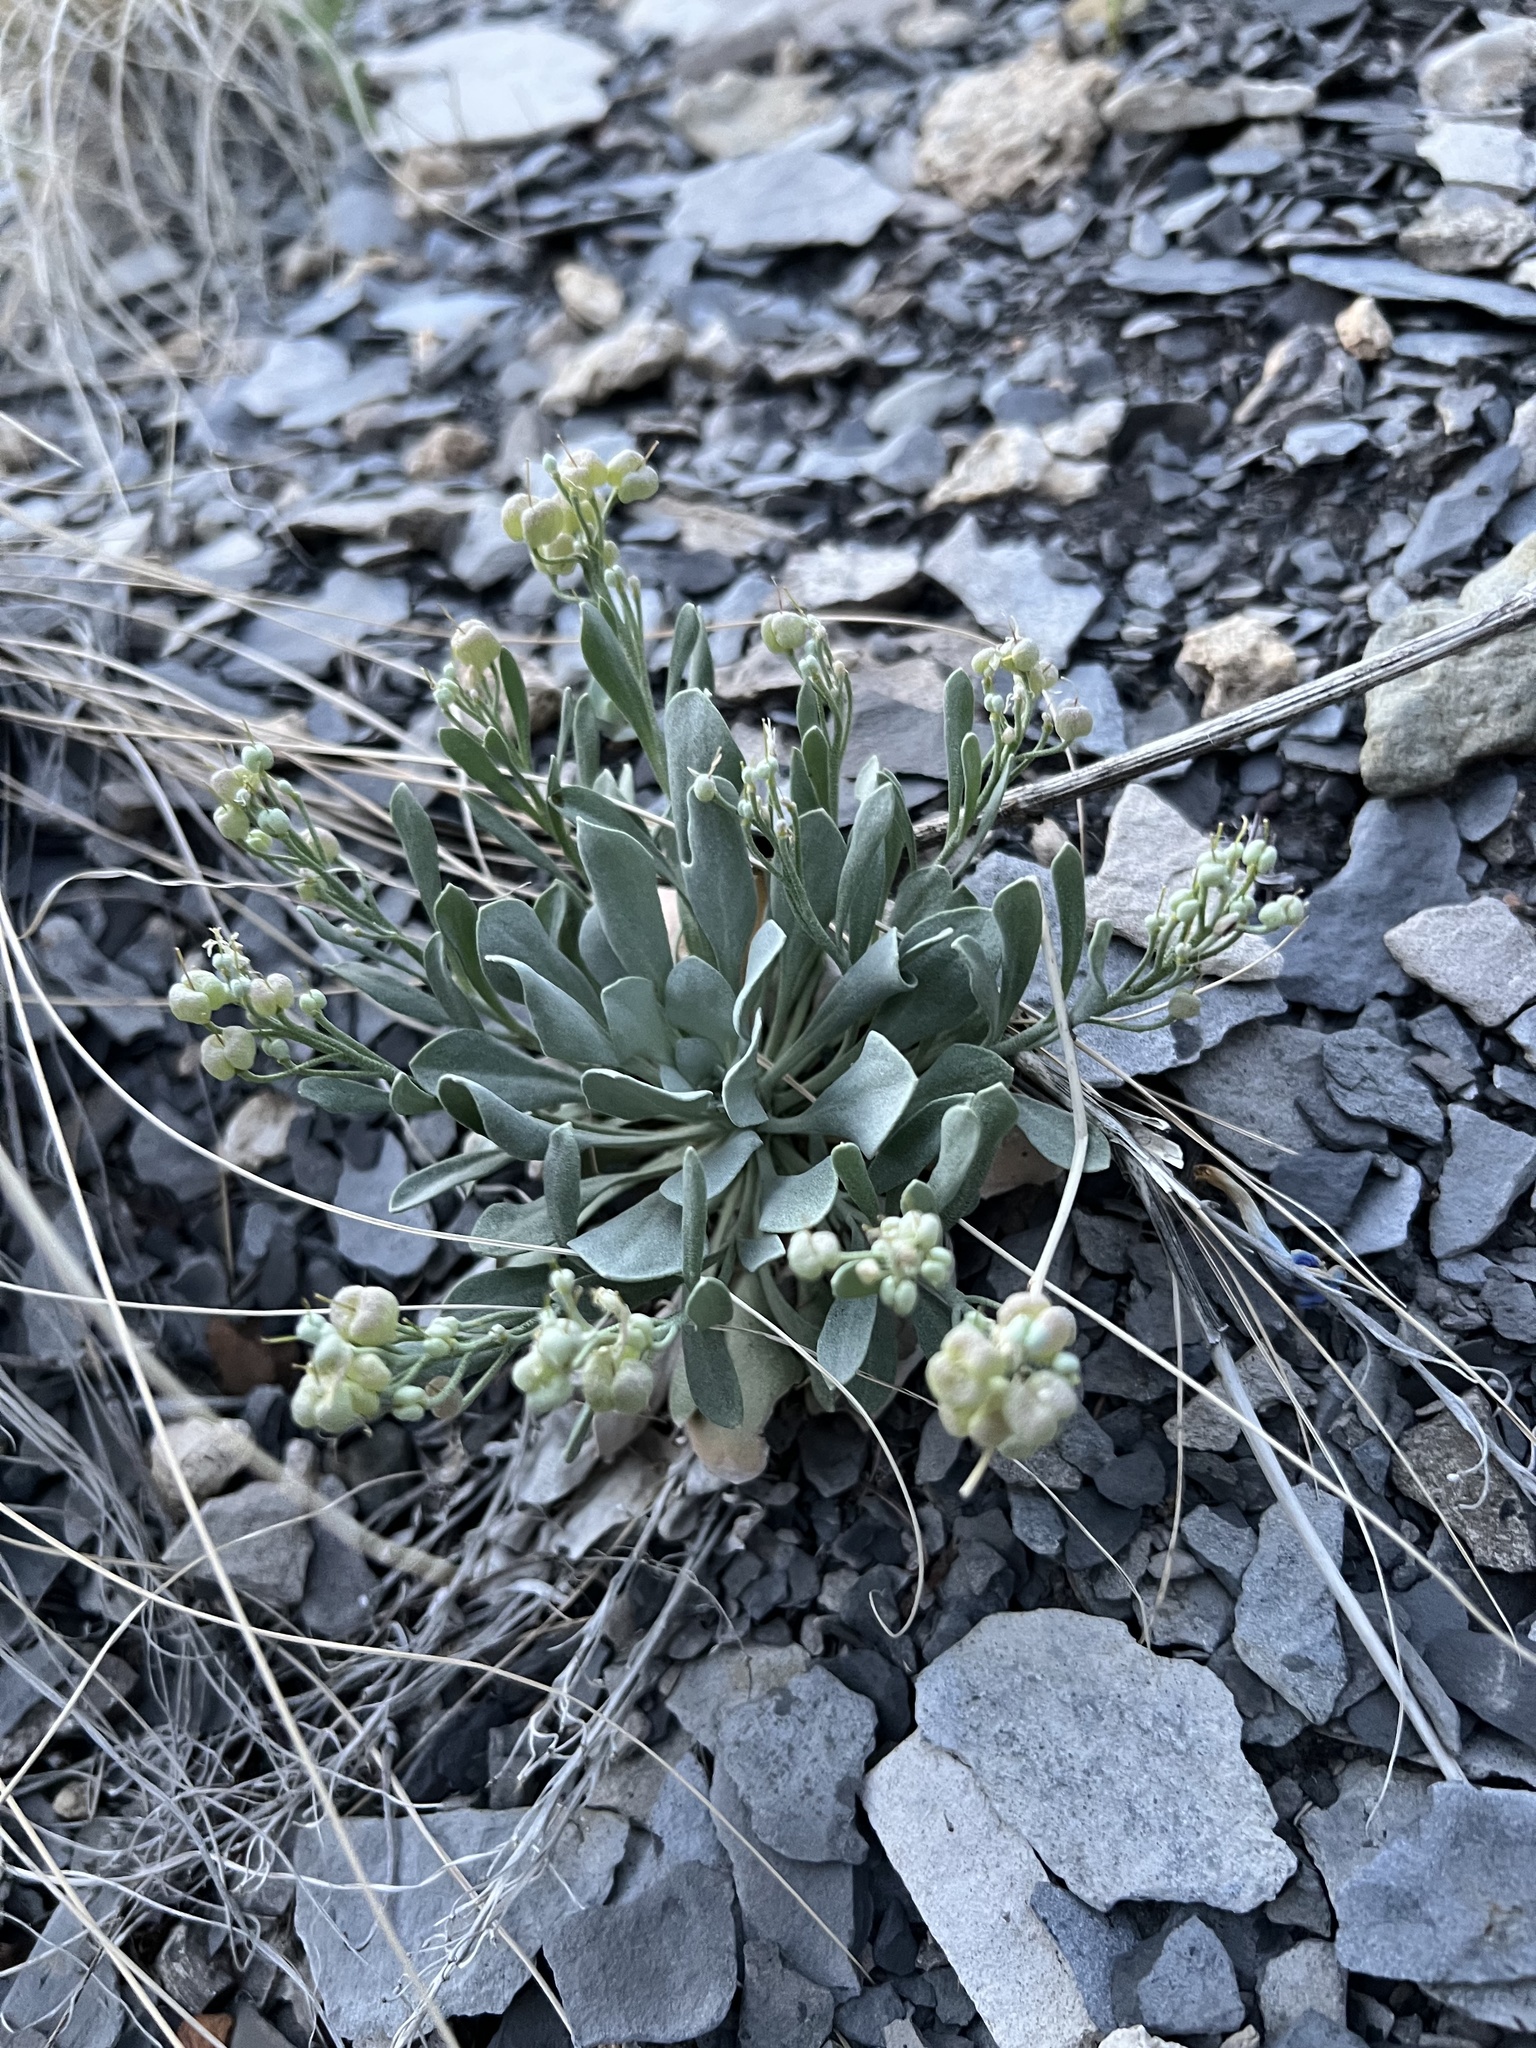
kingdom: Plantae
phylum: Tracheophyta
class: Magnoliopsida
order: Brassicales
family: Brassicaceae
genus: Physaria
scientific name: Physaria bellii
